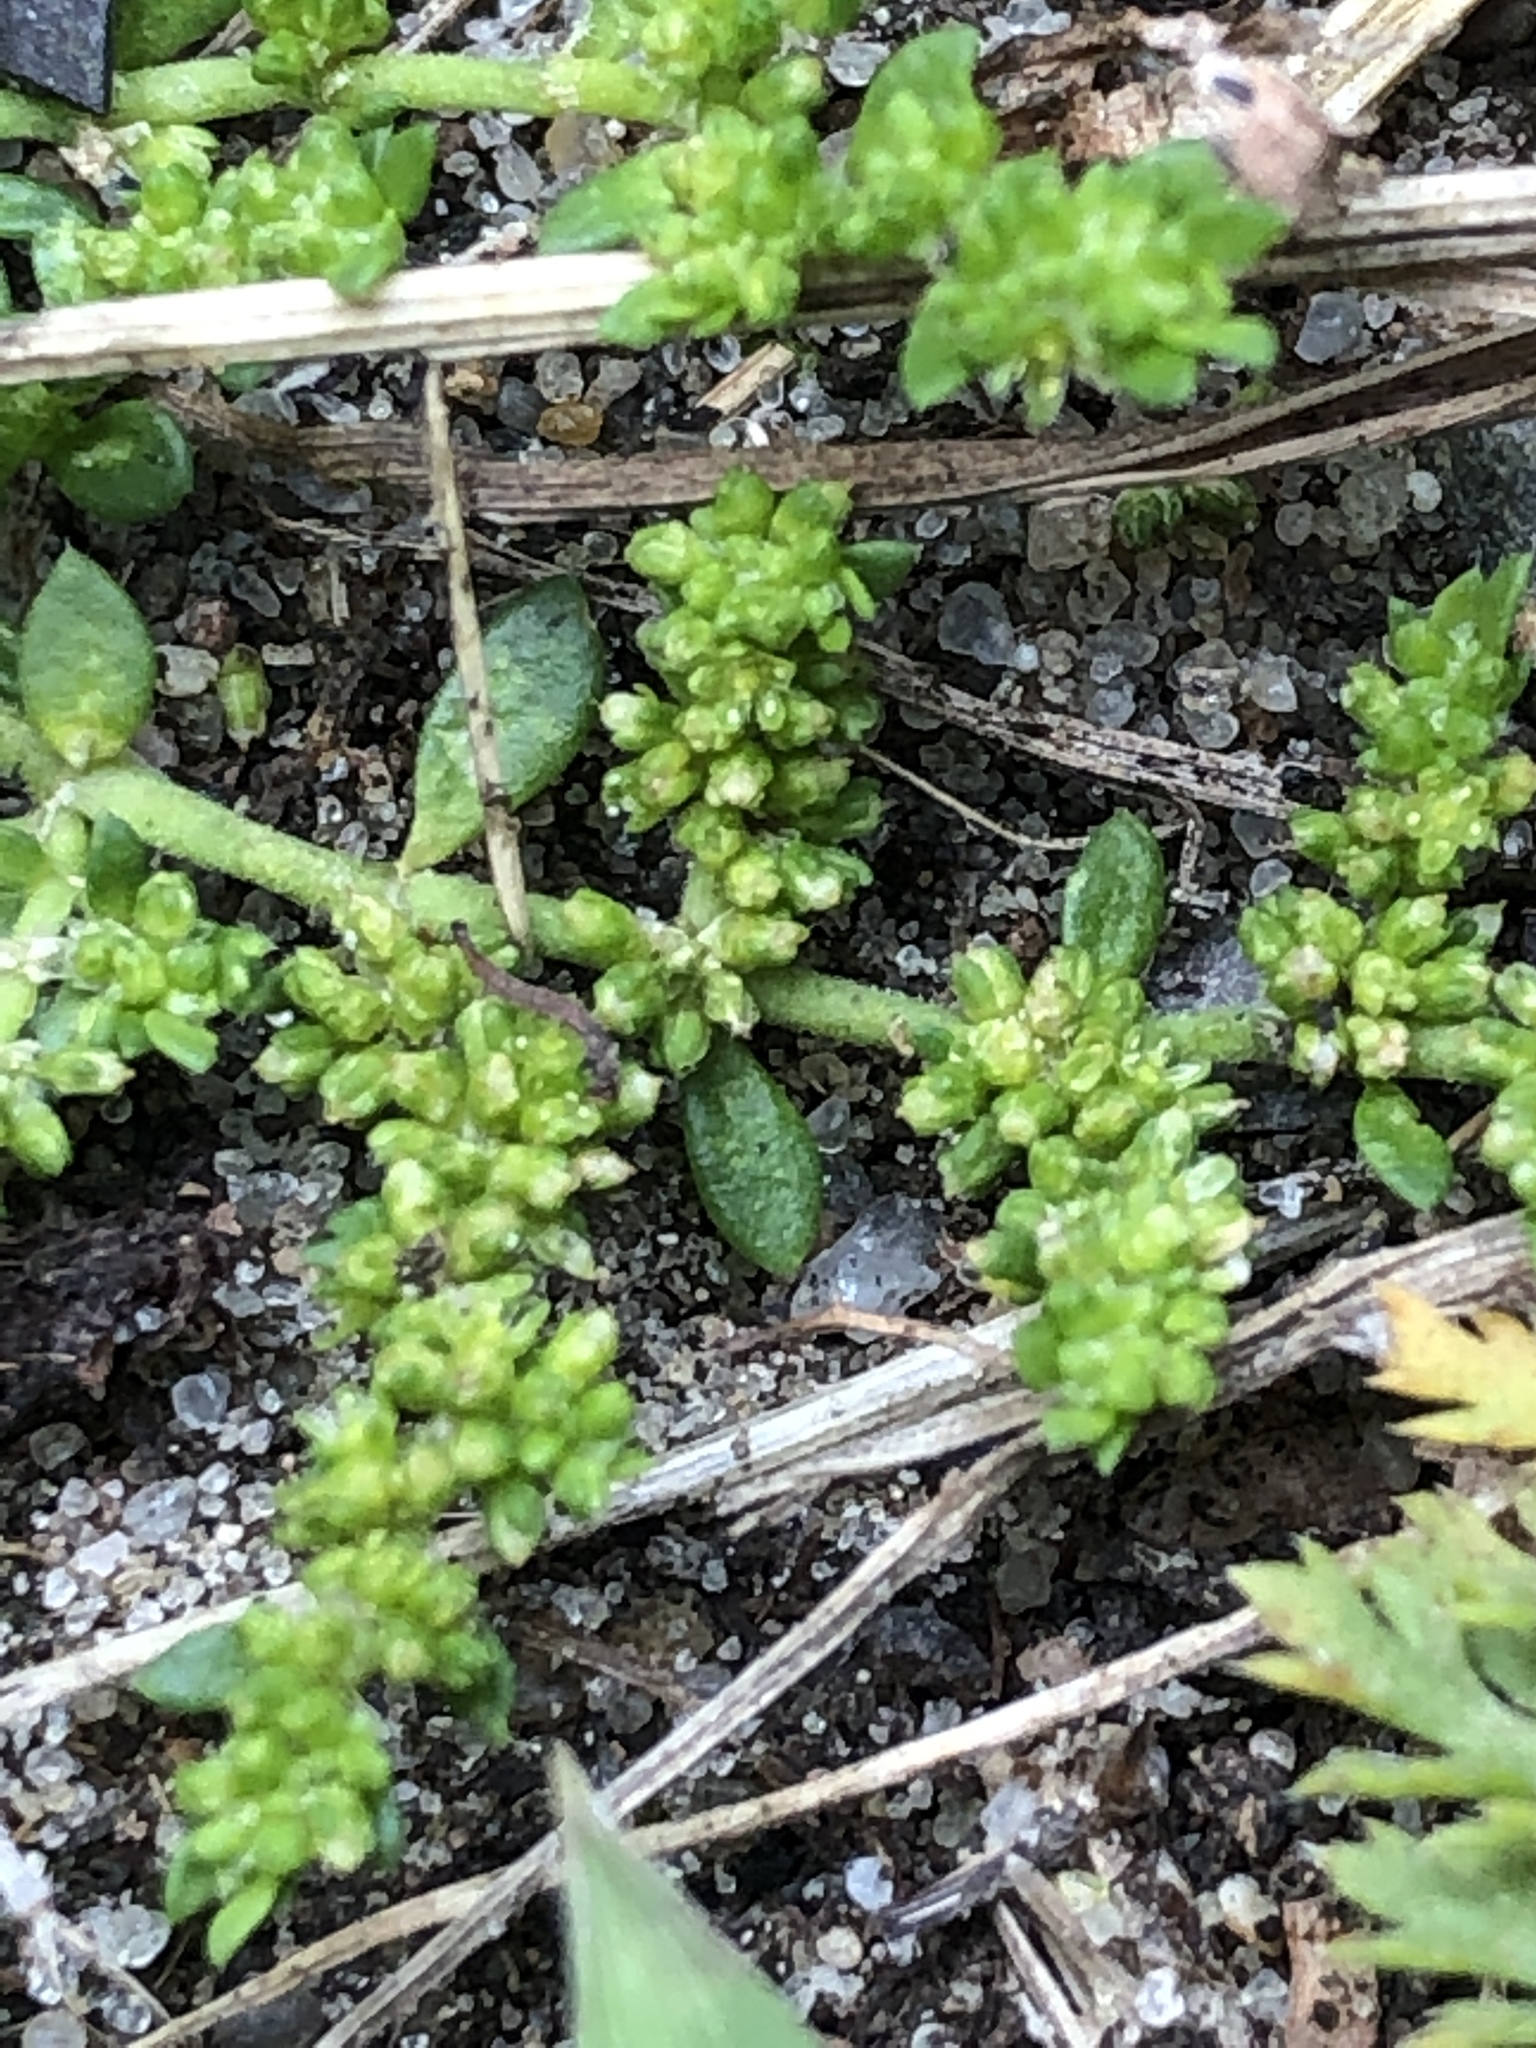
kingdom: Plantae
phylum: Tracheophyta
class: Magnoliopsida
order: Caryophyllales
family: Caryophyllaceae
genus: Herniaria
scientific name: Herniaria glabra
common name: Smooth rupturewort
